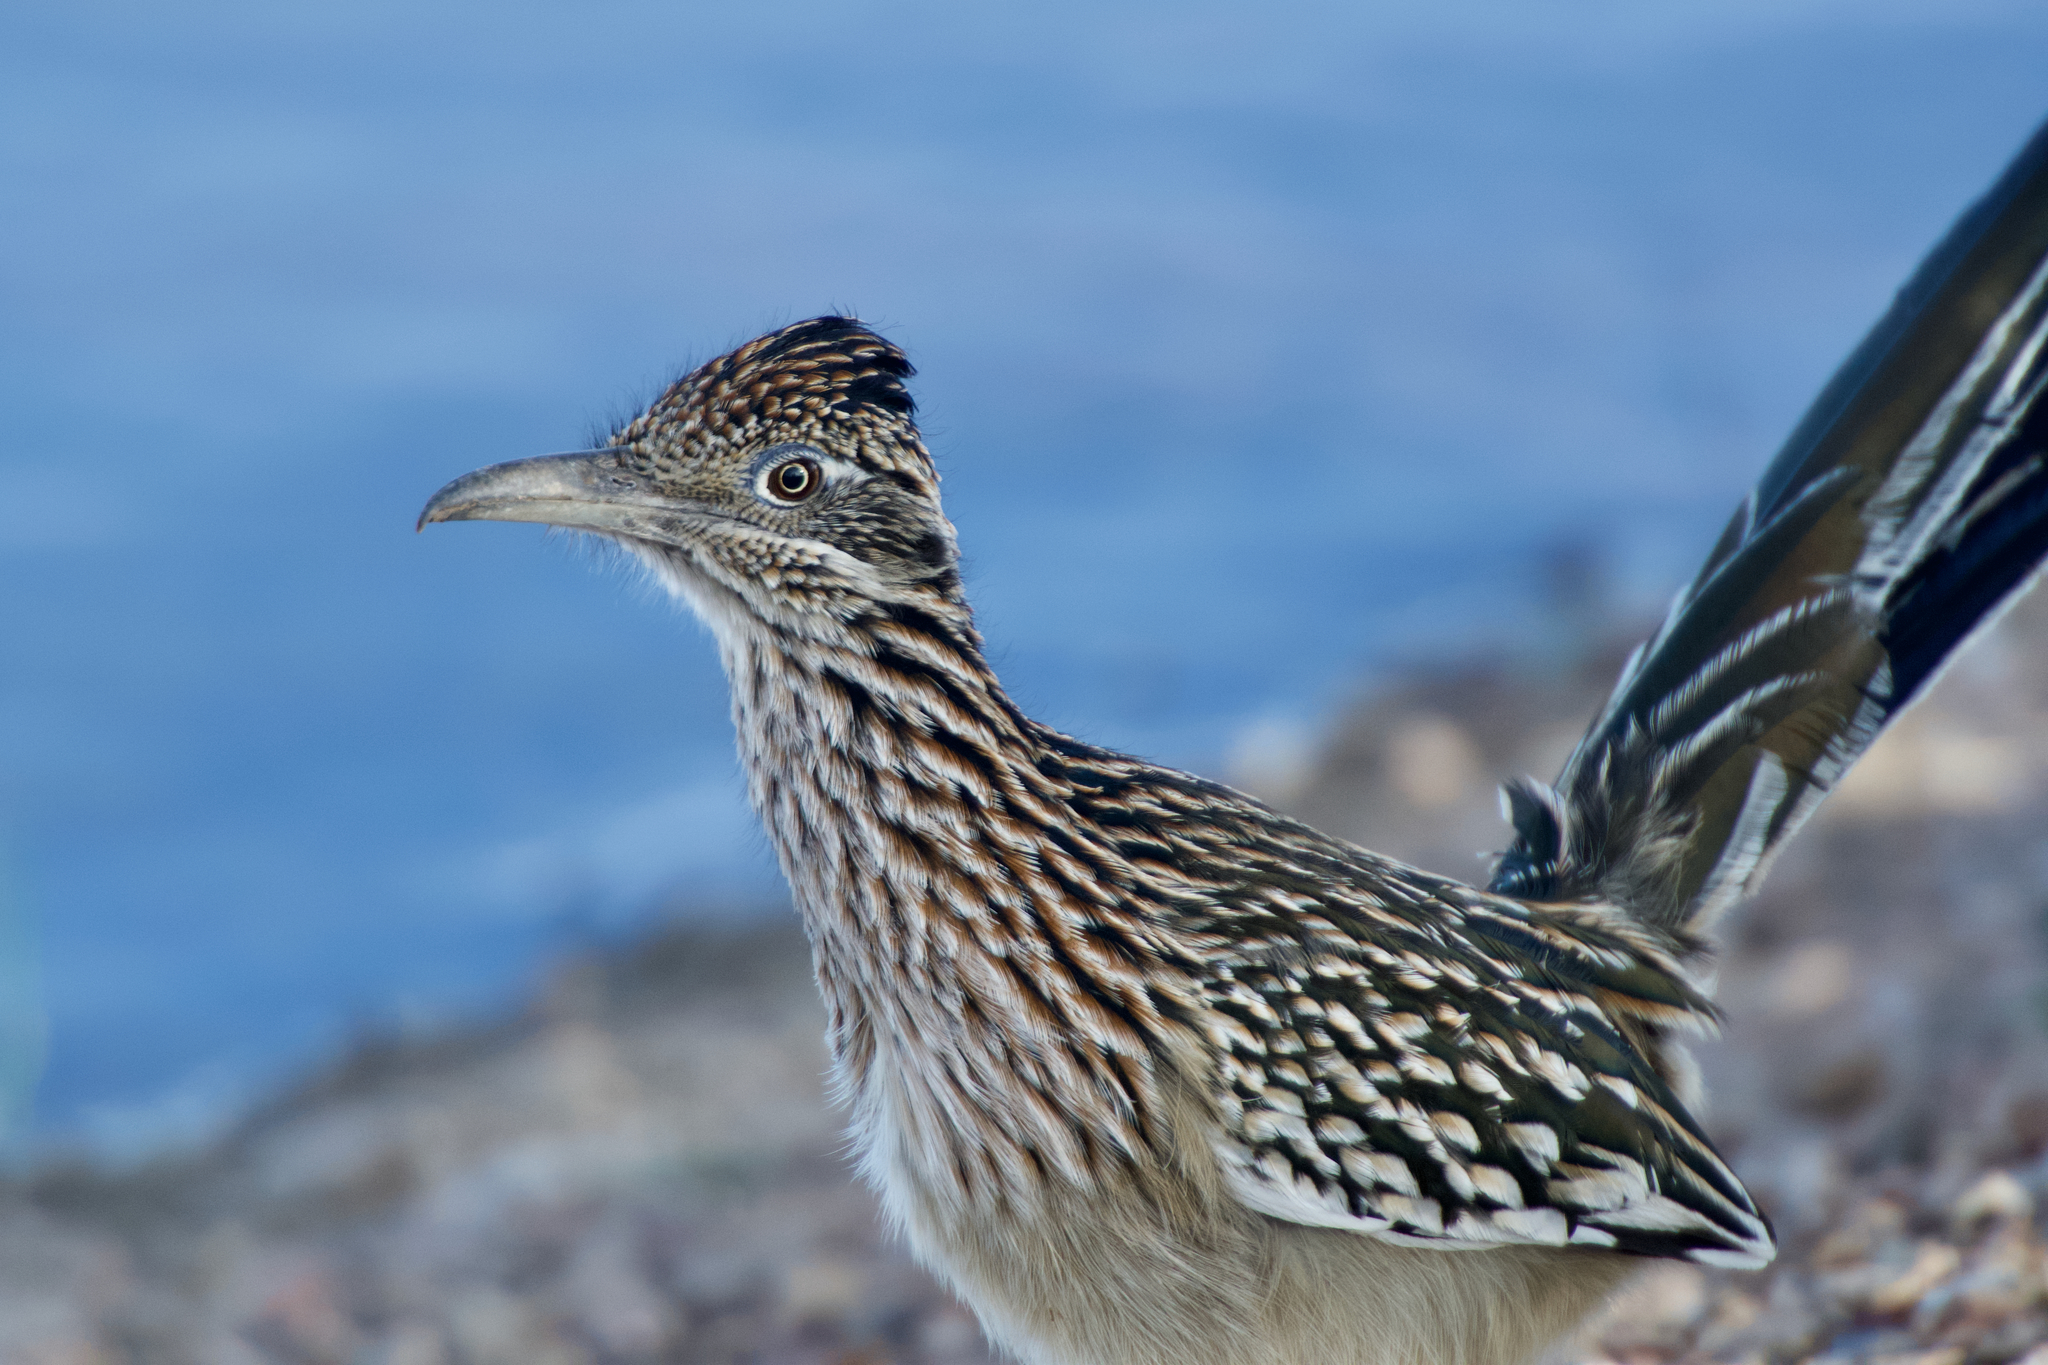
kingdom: Animalia
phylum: Chordata
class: Aves
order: Cuculiformes
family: Cuculidae
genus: Geococcyx
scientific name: Geococcyx californianus
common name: Greater roadrunner
